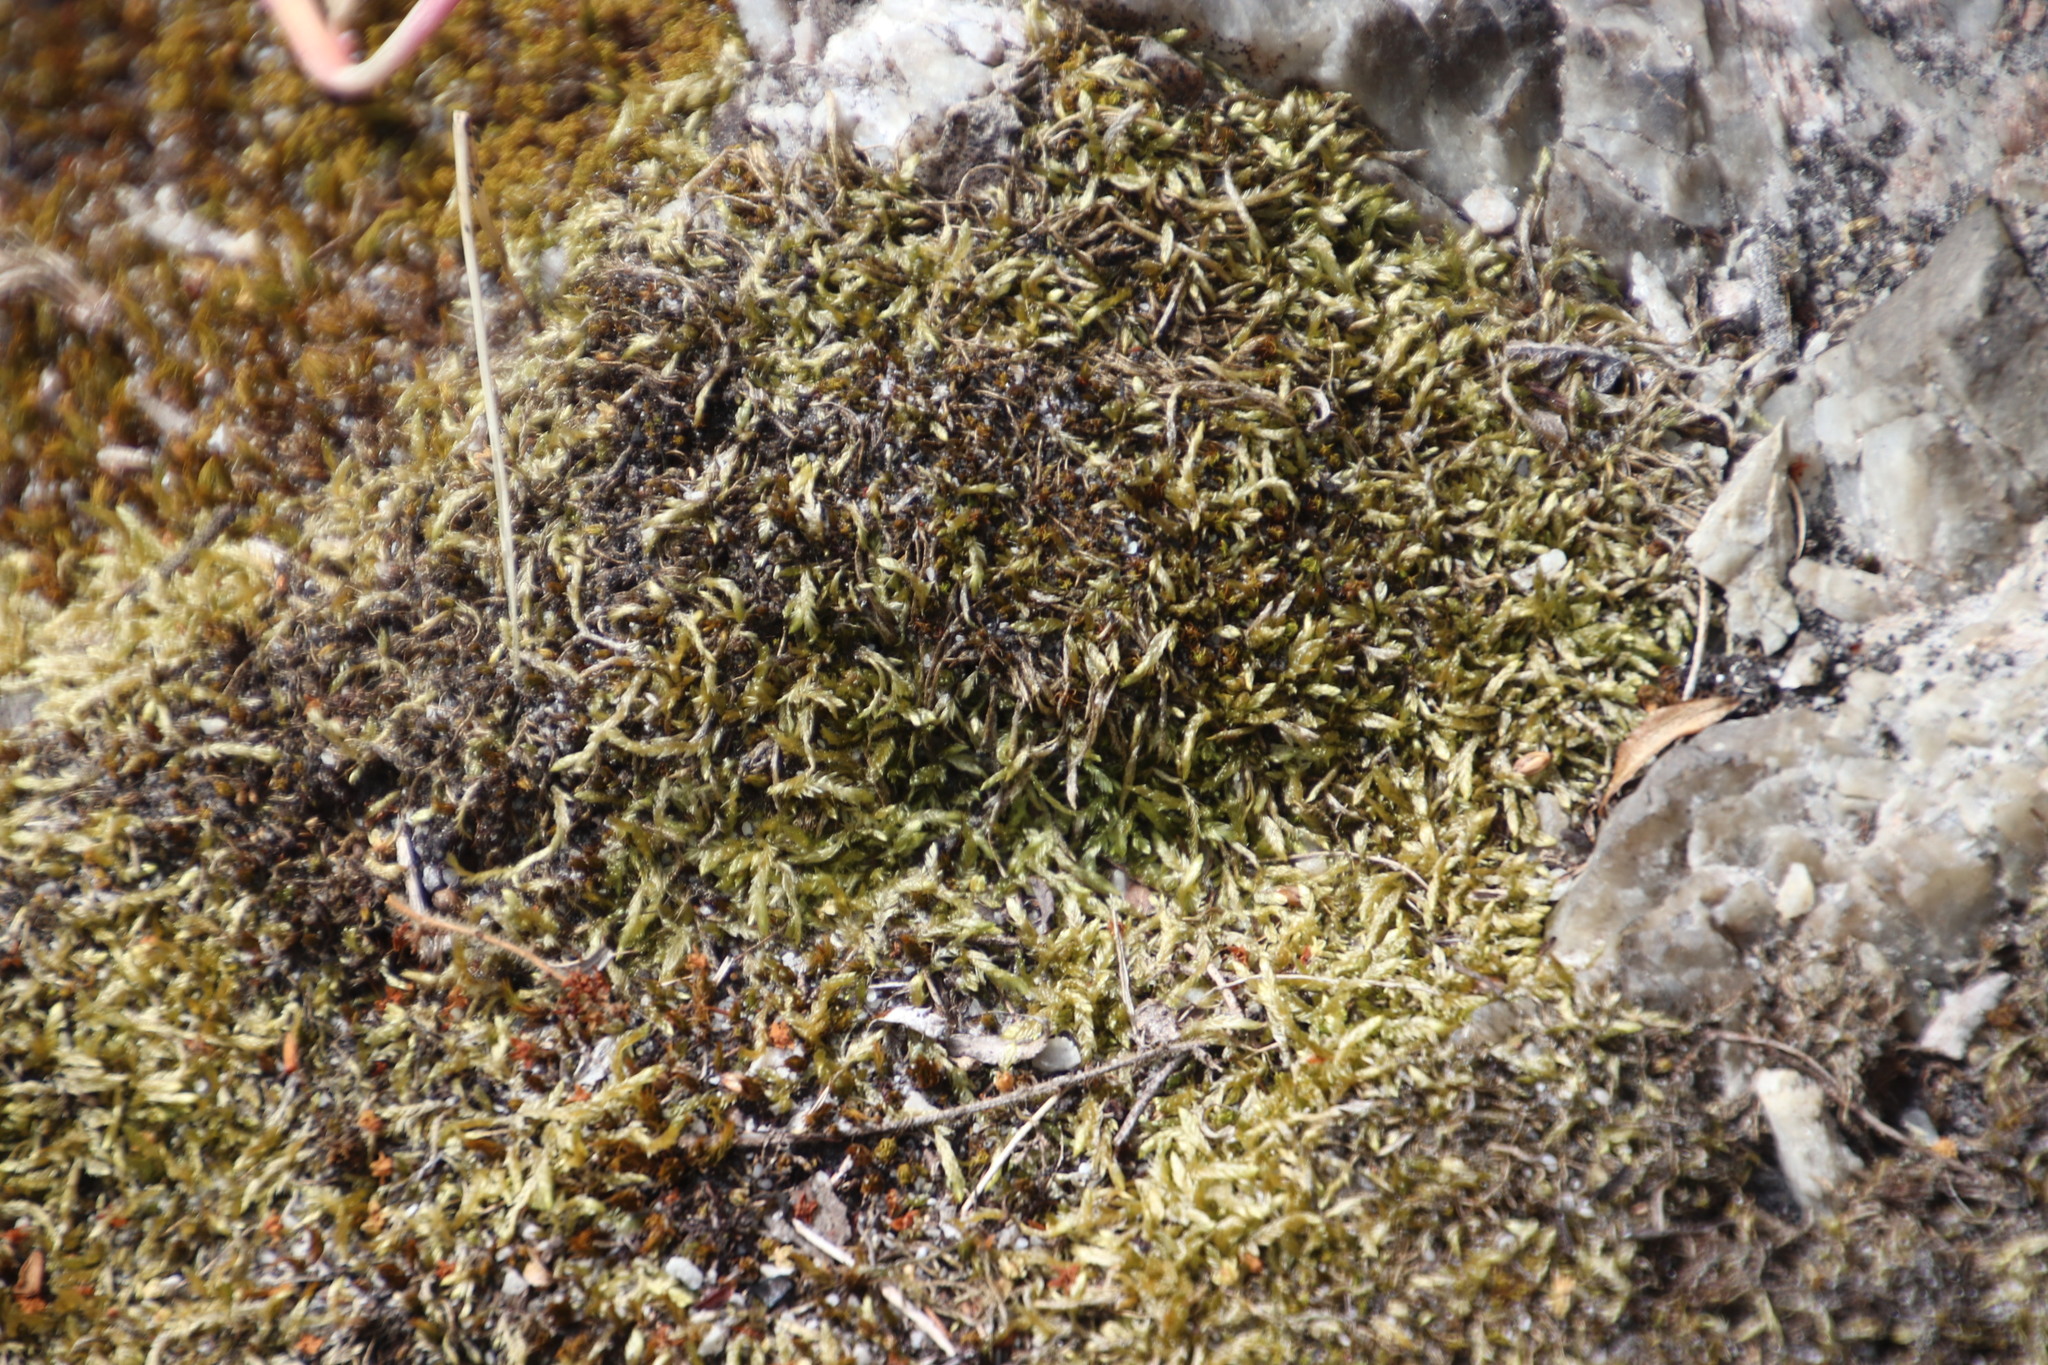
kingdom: Plantae
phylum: Bryophyta
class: Bryopsida
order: Hypnales
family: Fabroniaceae
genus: Ischyrodon
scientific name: Ischyrodon lepturus
